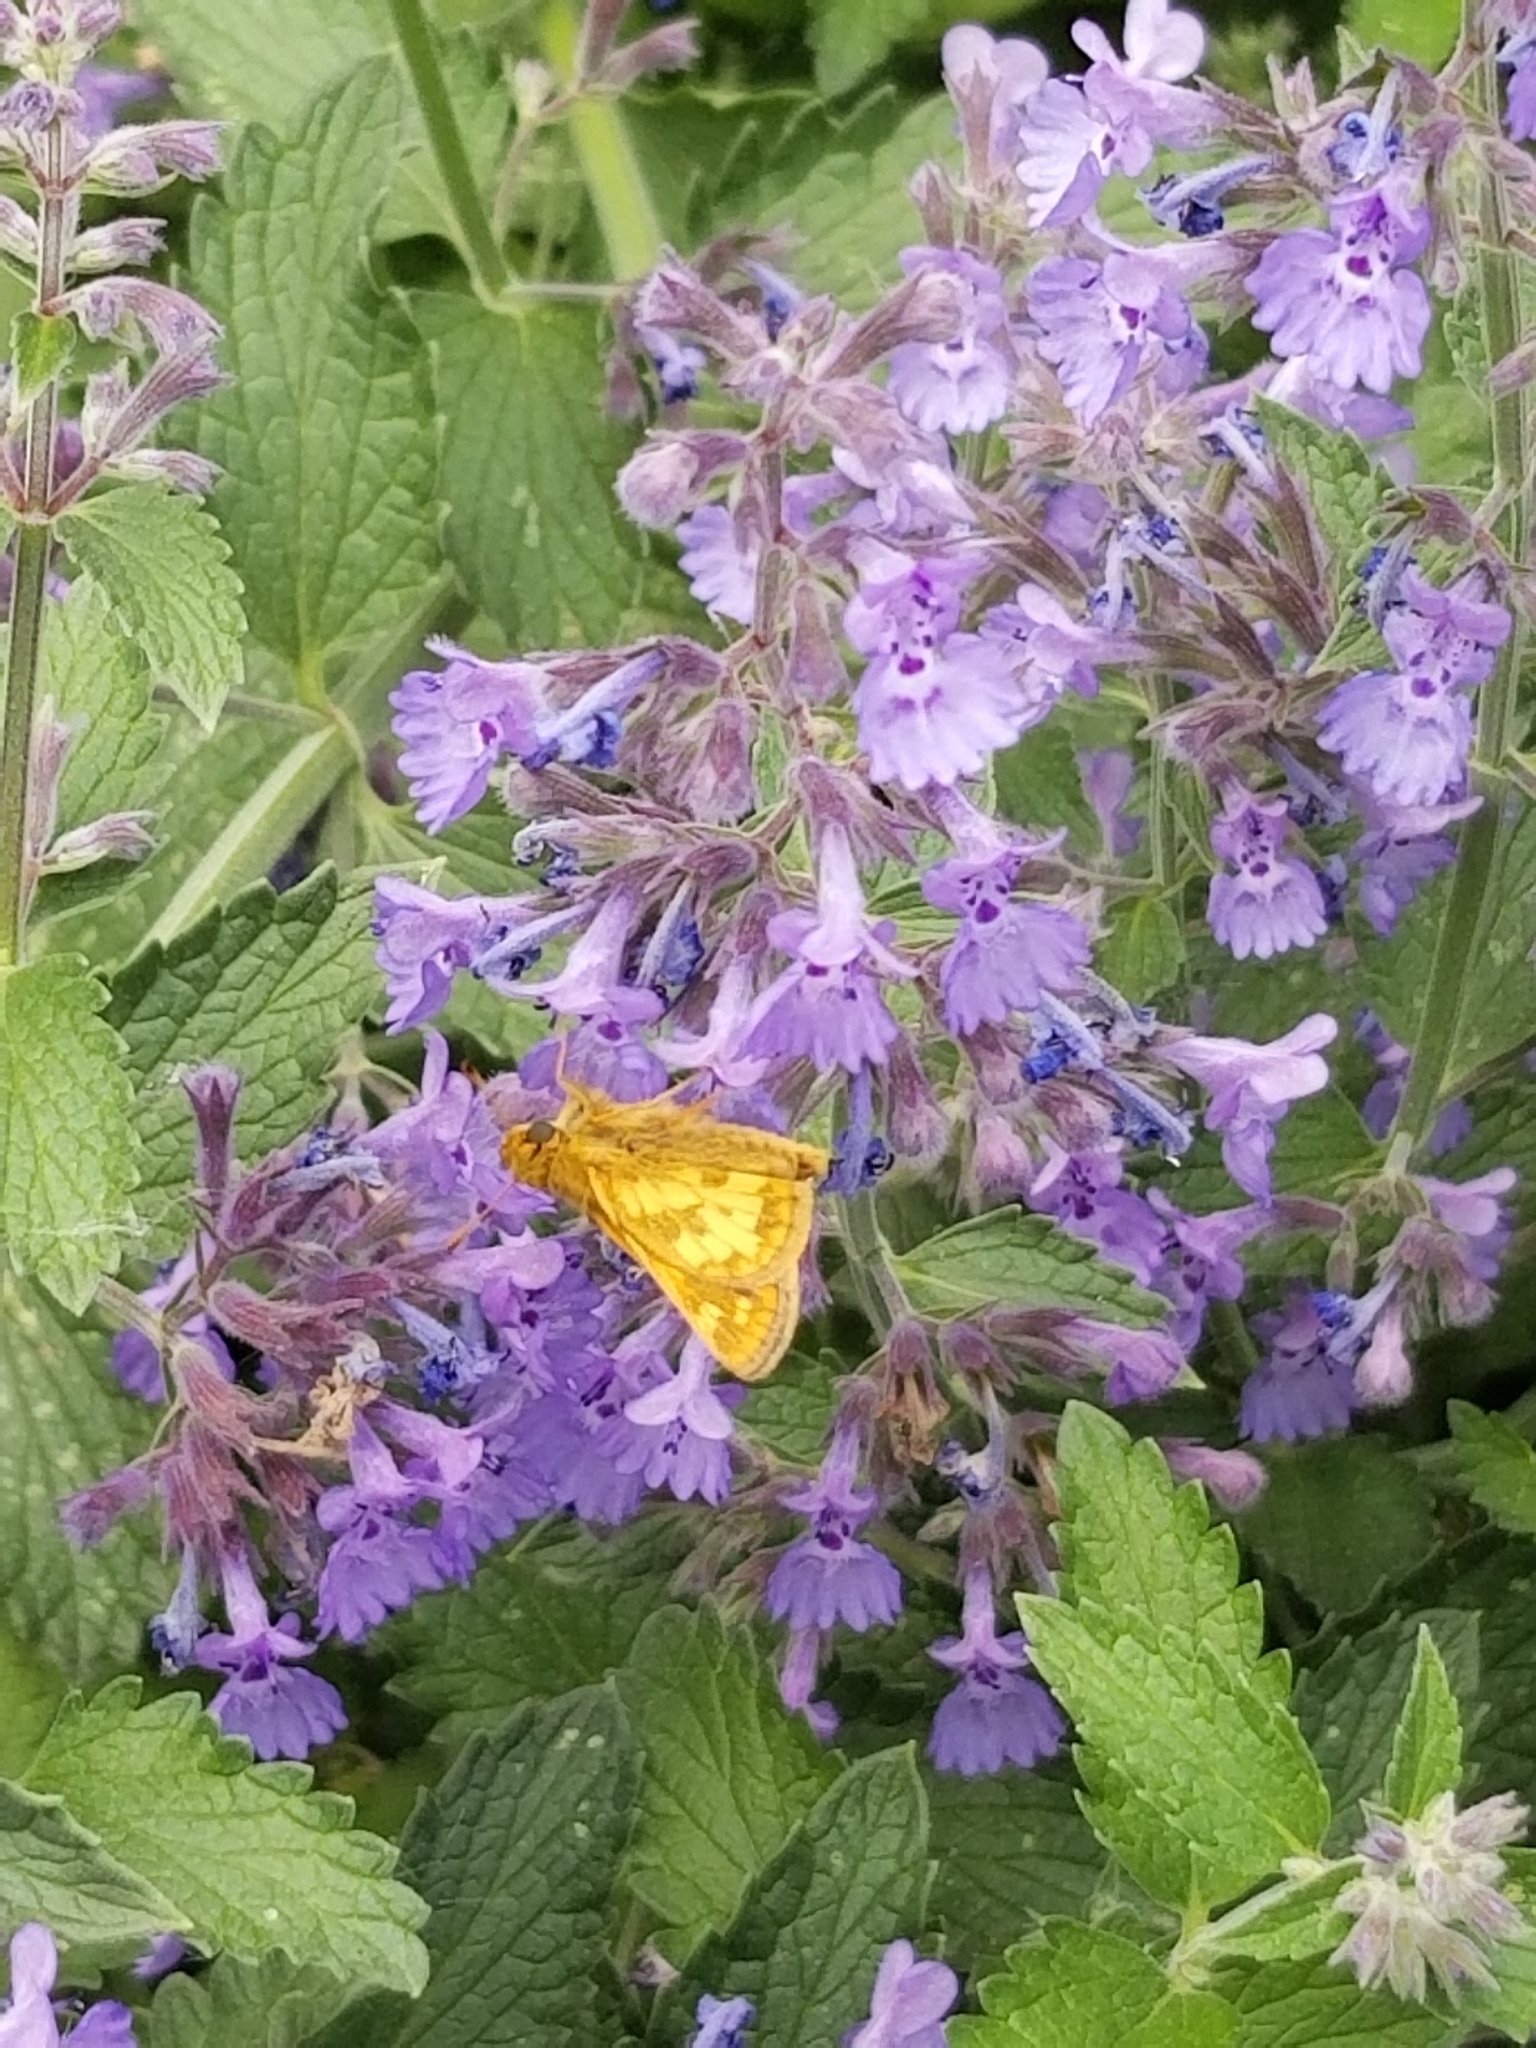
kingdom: Animalia
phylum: Arthropoda
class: Insecta
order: Lepidoptera
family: Hesperiidae
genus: Polites
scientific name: Polites coras
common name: Peck's skipper
